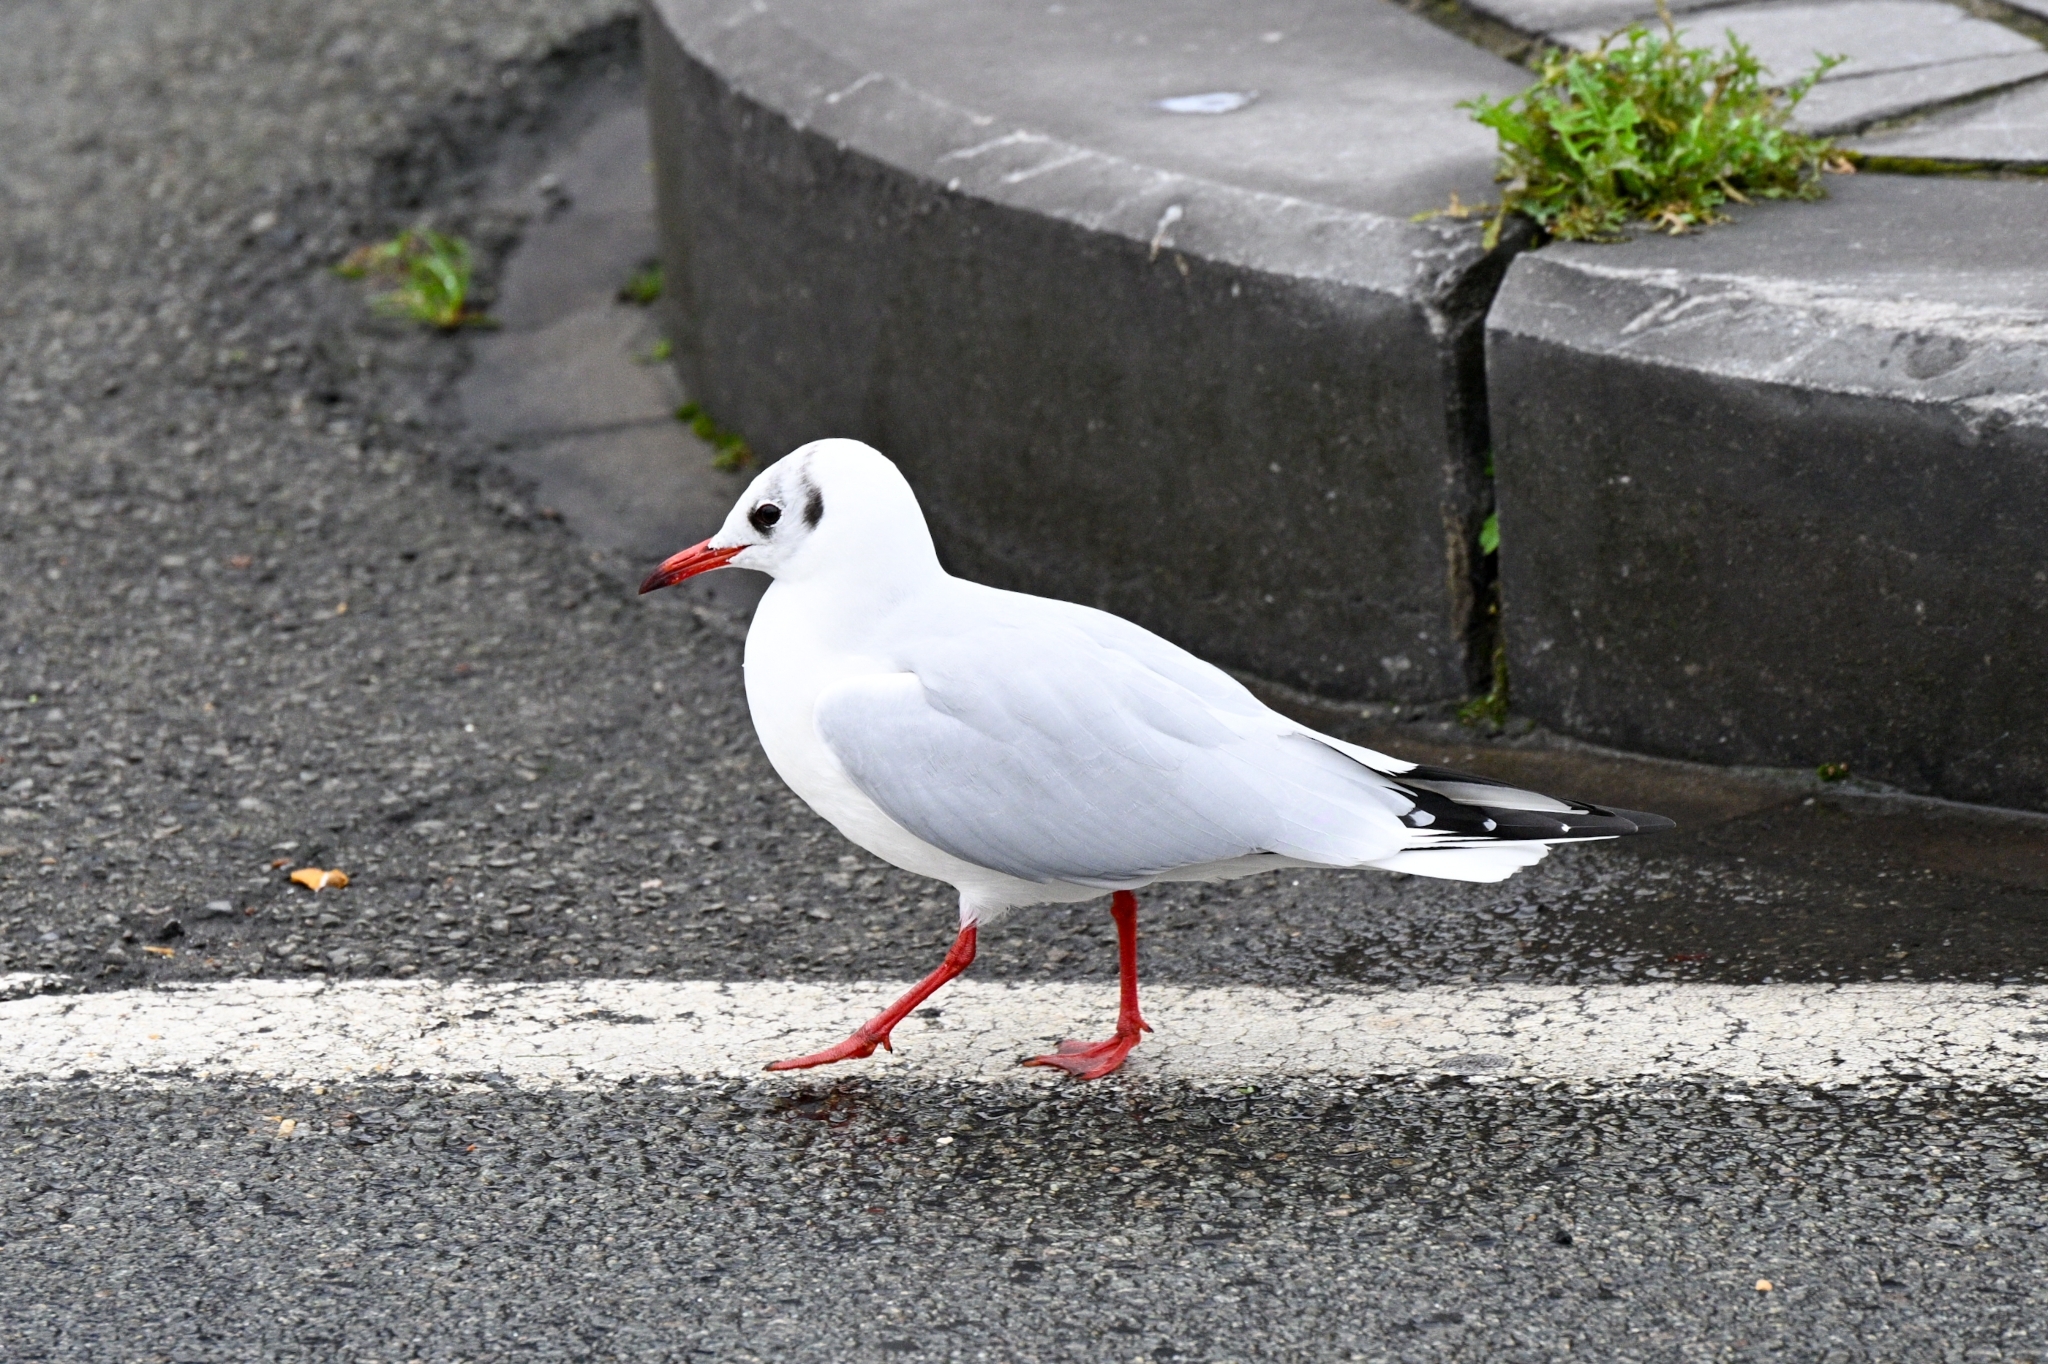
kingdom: Animalia
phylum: Chordata
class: Aves
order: Charadriiformes
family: Laridae
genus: Chroicocephalus
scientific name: Chroicocephalus ridibundus
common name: Black-headed gull
